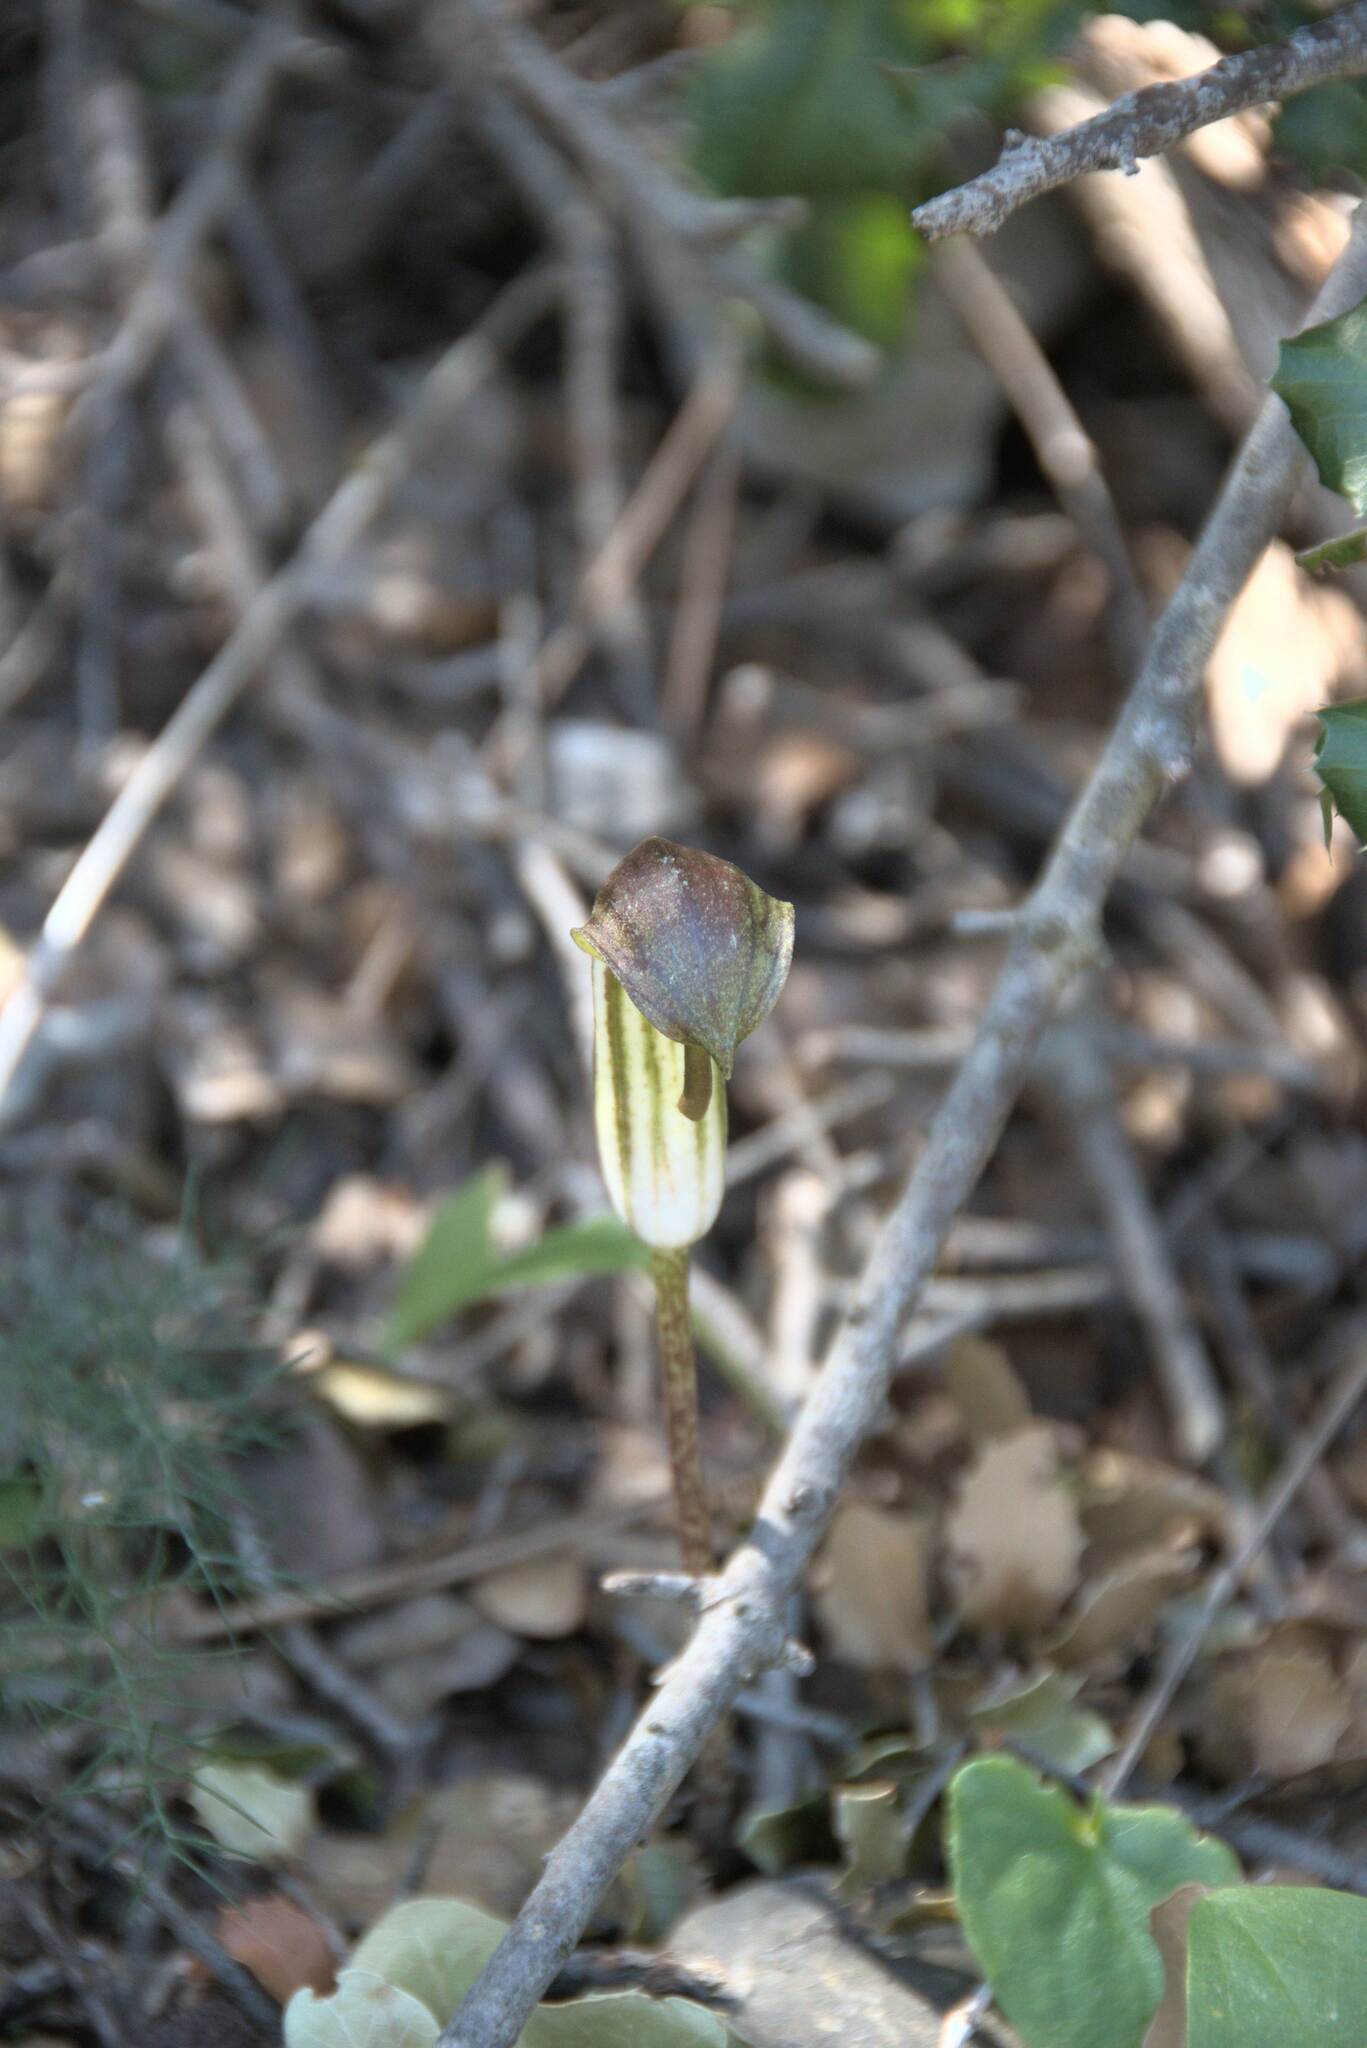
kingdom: Plantae
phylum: Tracheophyta
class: Liliopsida
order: Alismatales
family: Araceae
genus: Arisarum
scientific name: Arisarum vulgare
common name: Common arisarum
